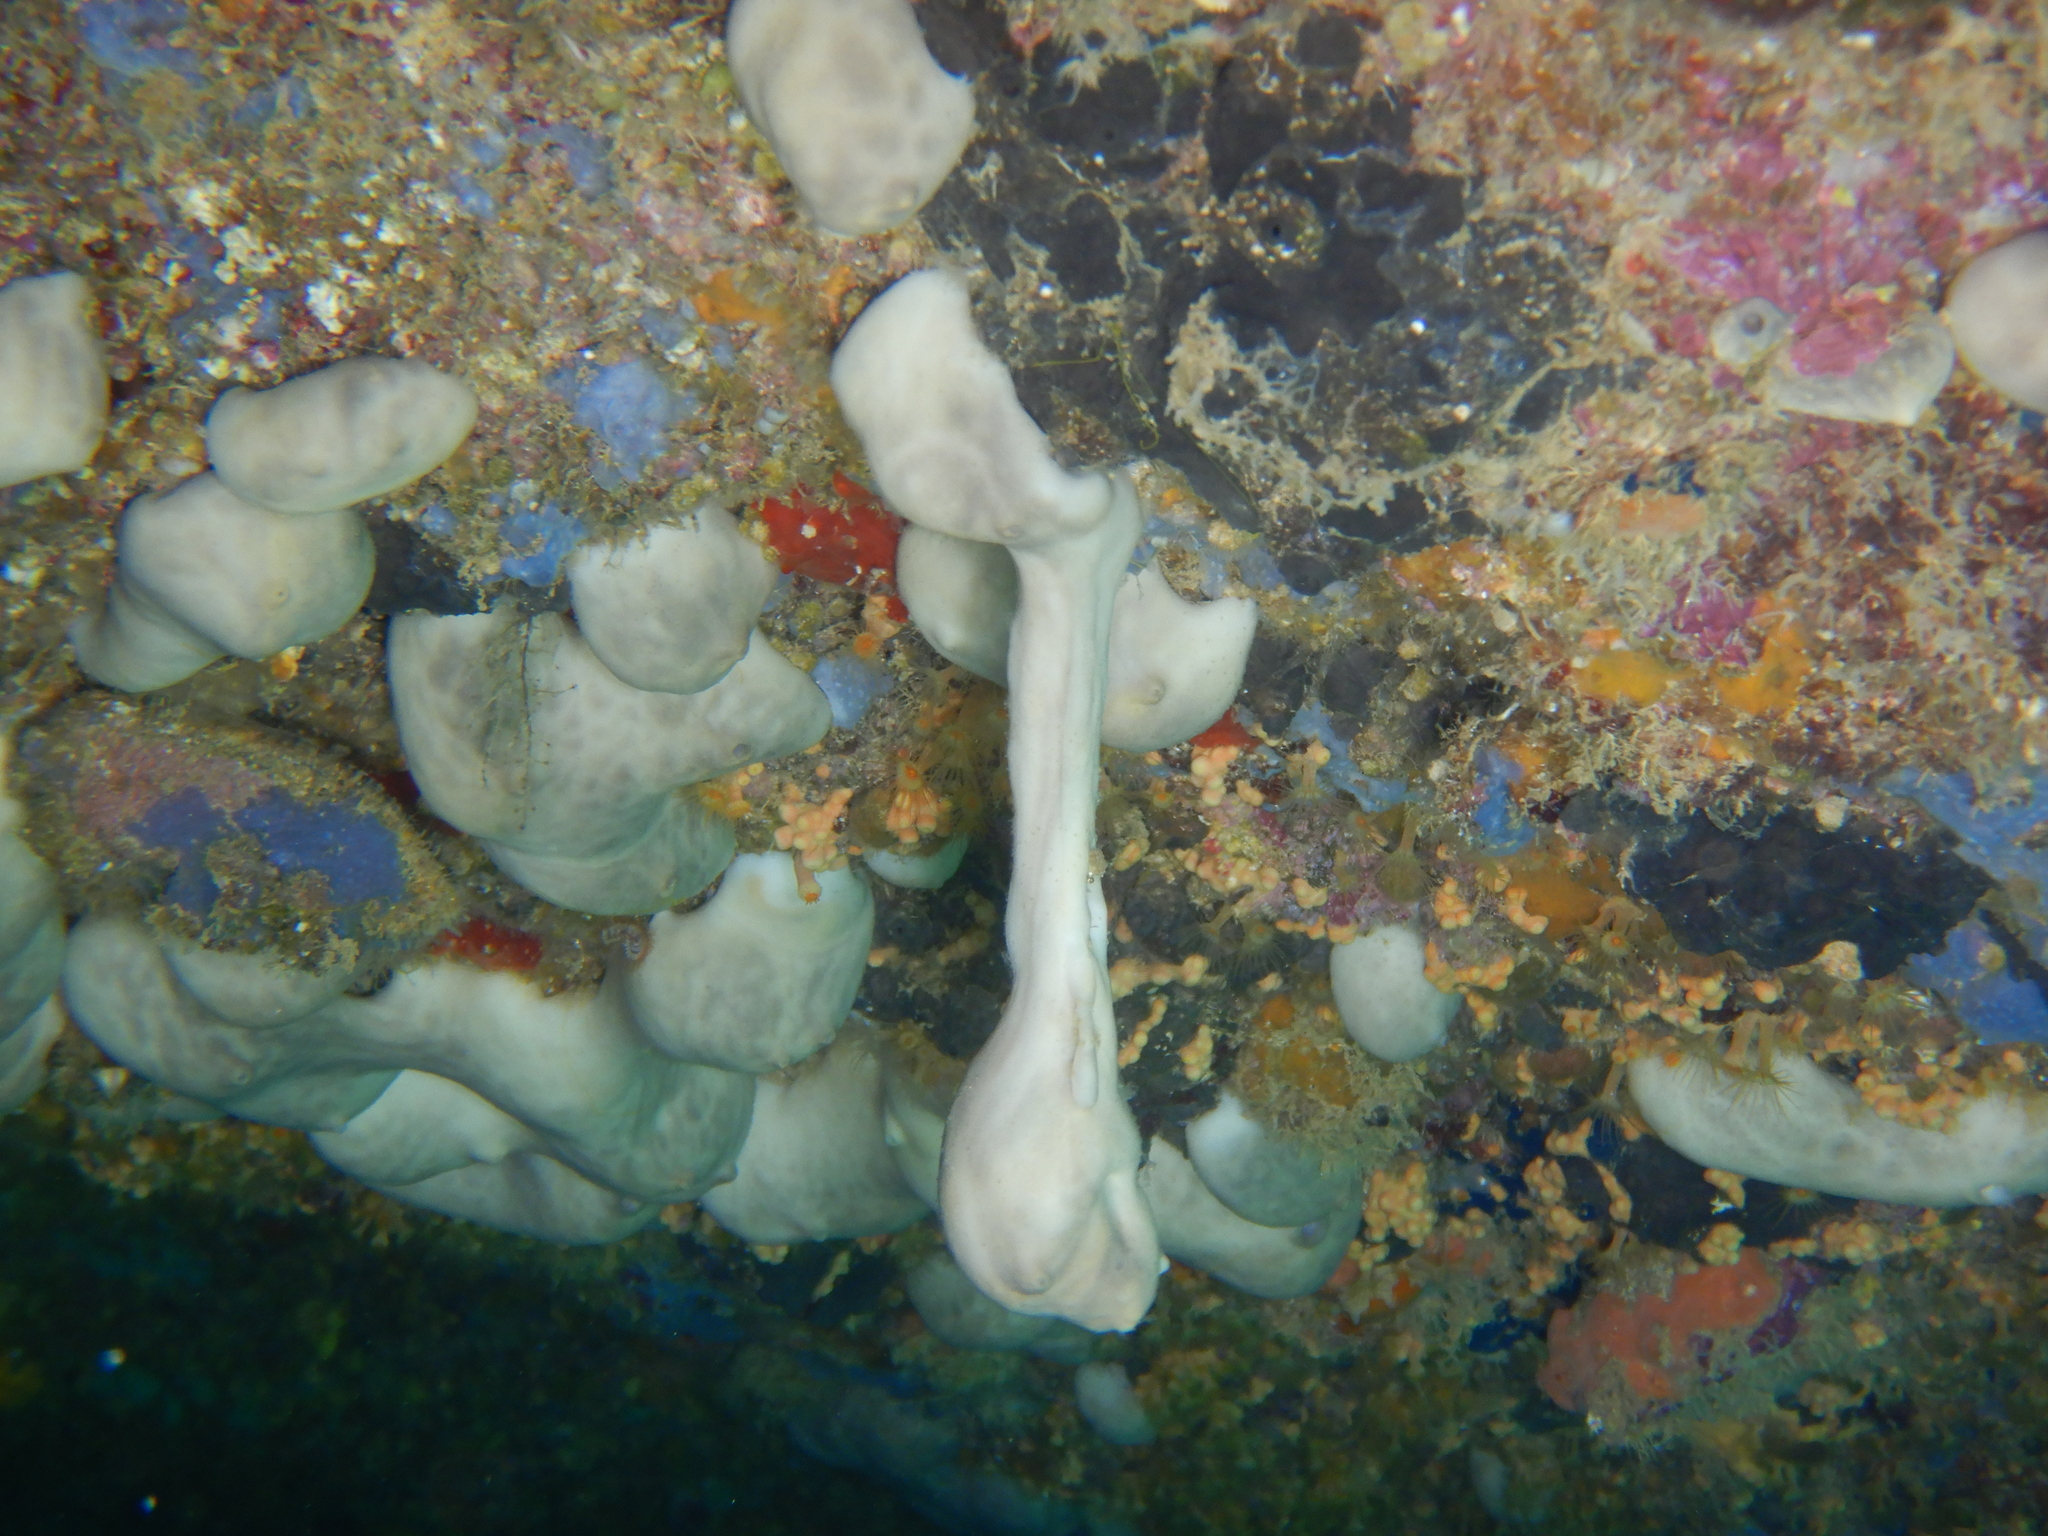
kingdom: Animalia
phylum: Porifera
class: Demospongiae
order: Chondrosiida
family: Chondrosiidae
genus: Chondrosia
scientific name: Chondrosia reniformis
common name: Chicken liver sponge
